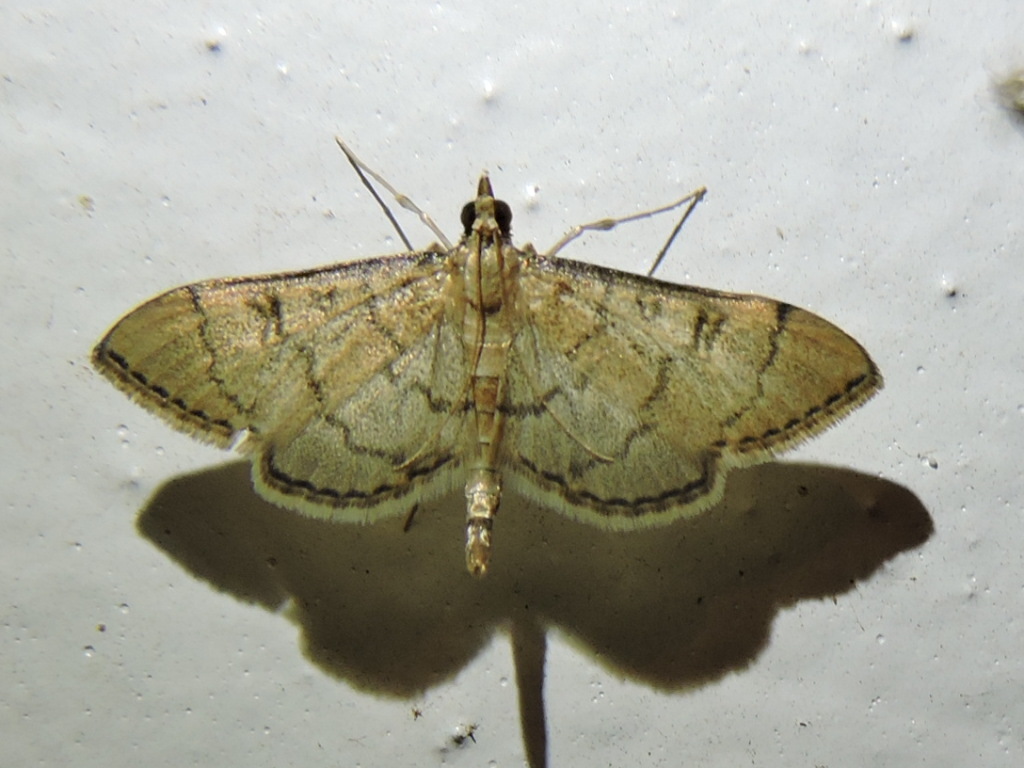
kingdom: Animalia
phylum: Arthropoda
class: Insecta
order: Lepidoptera
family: Crambidae
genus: Lamprosema
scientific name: Lamprosema Blepharomastix ranalis
